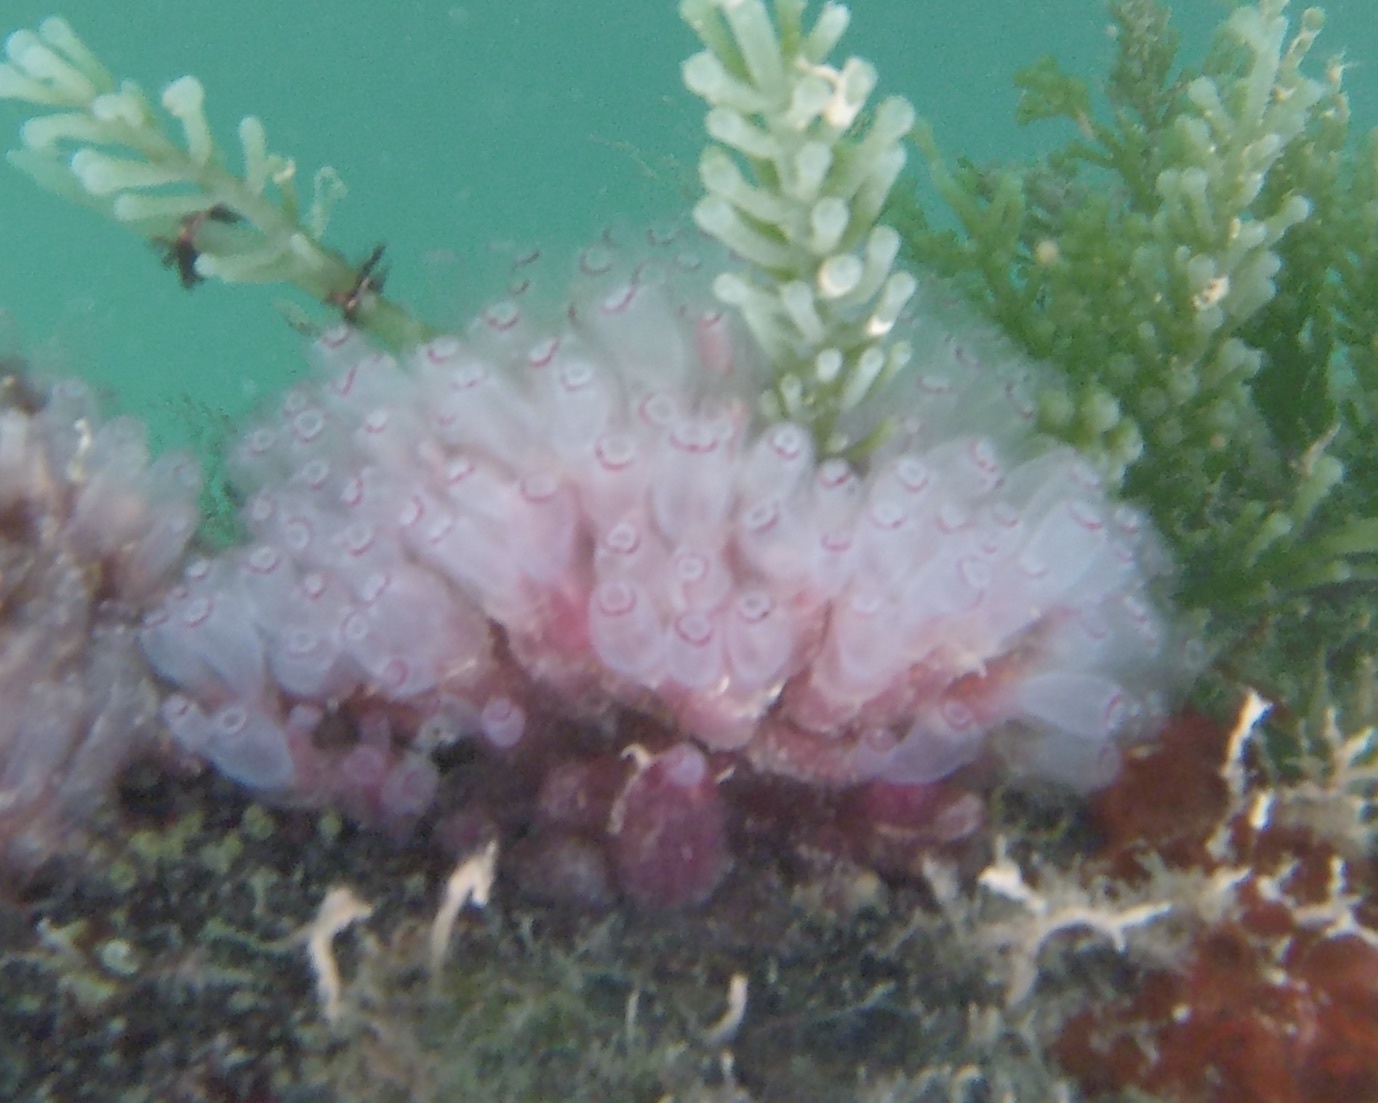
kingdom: Animalia
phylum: Chordata
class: Ascidiacea
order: Aplousobranchia
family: Clavelinidae
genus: Clavelina
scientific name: Clavelina picta
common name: Painted tunicate
